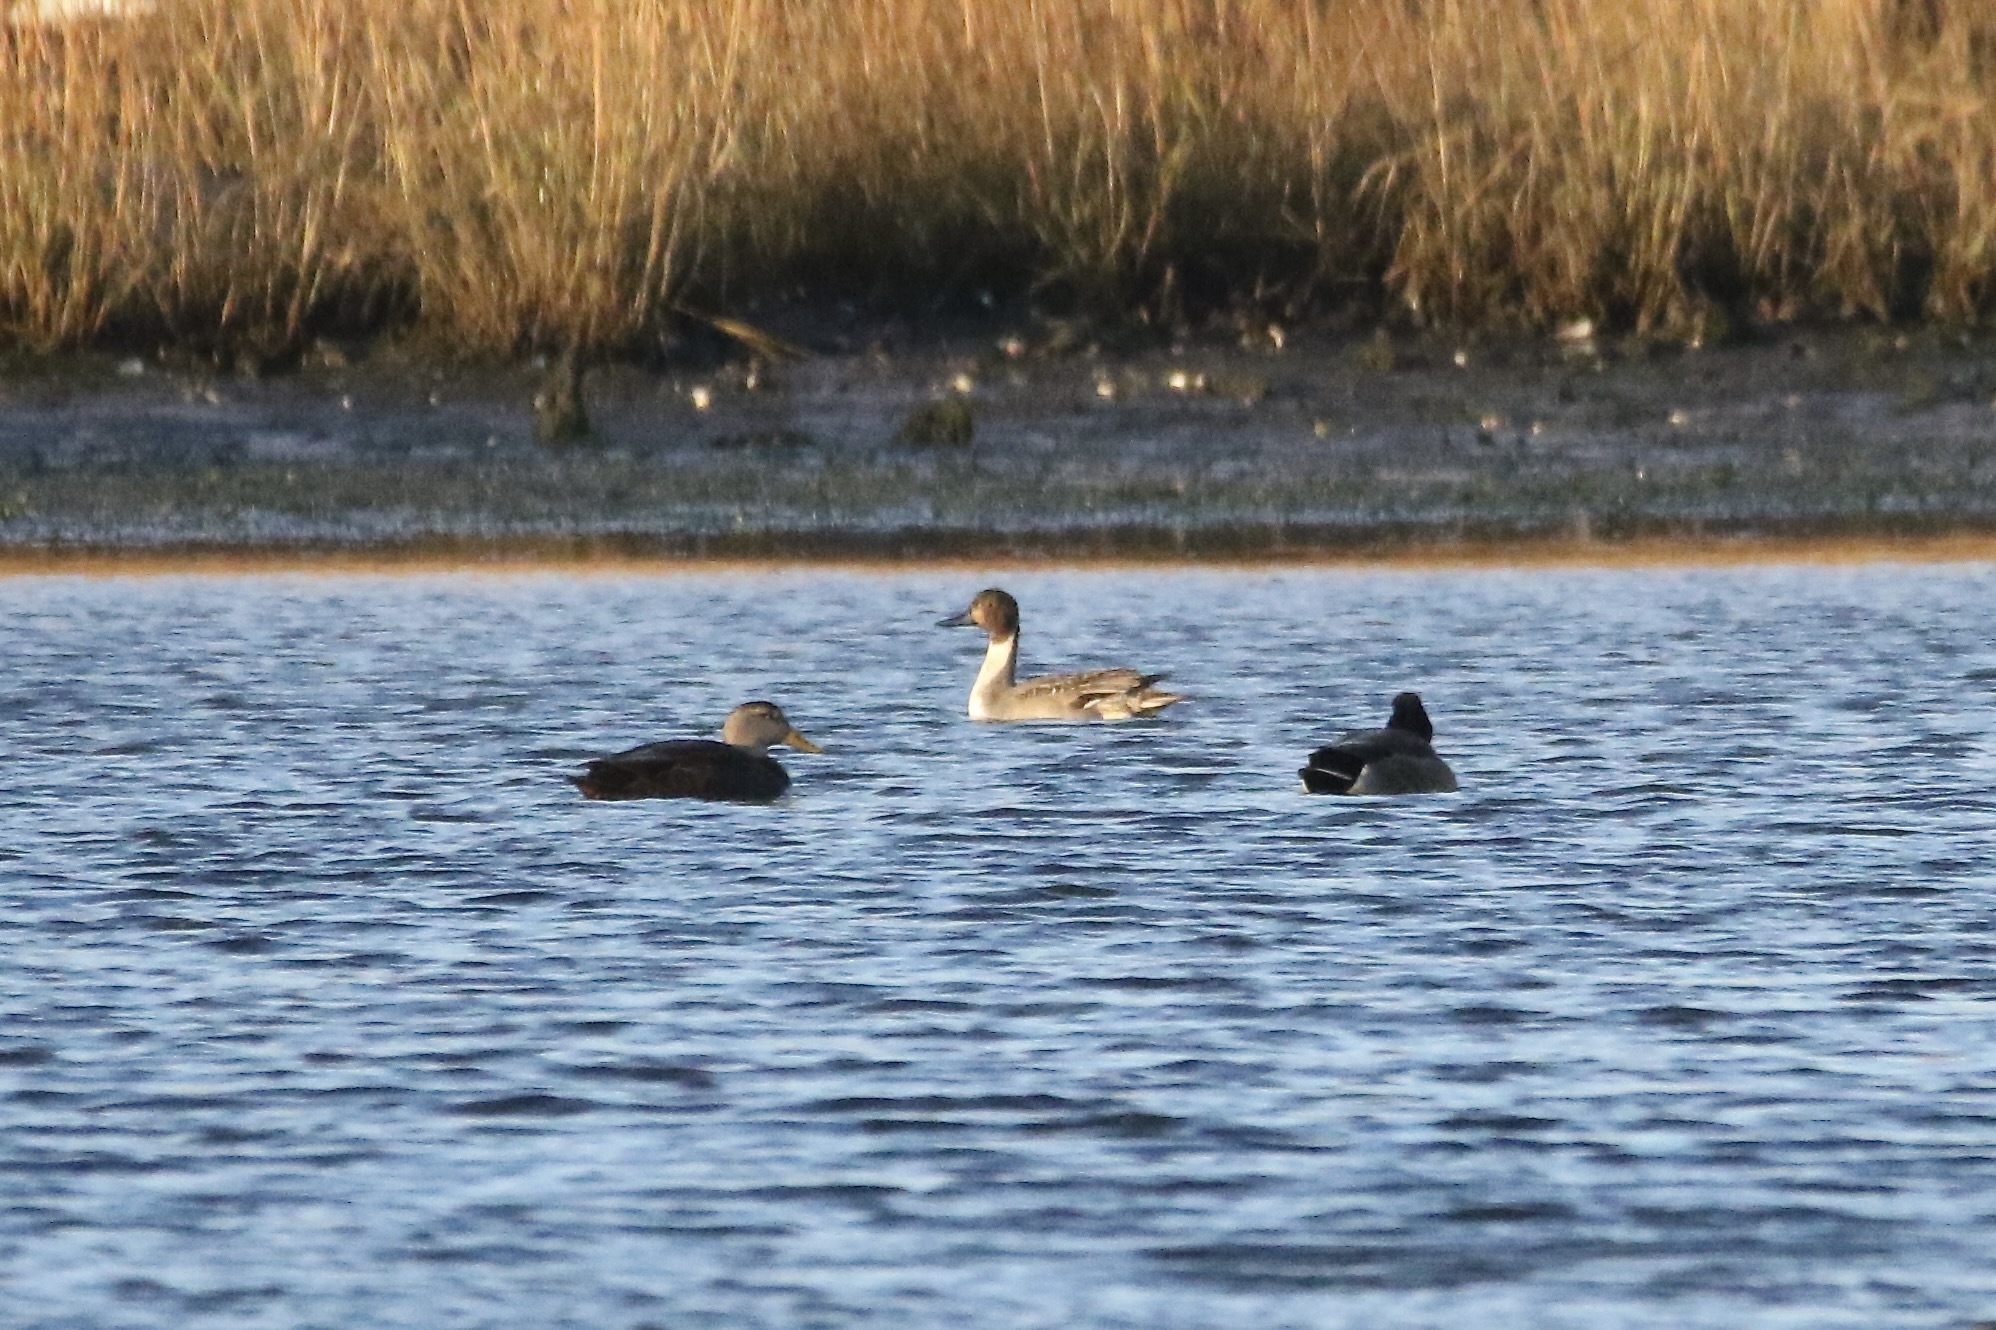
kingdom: Animalia
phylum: Chordata
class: Aves
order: Anseriformes
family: Anatidae
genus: Anas
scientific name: Anas acuta
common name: Northern pintail
